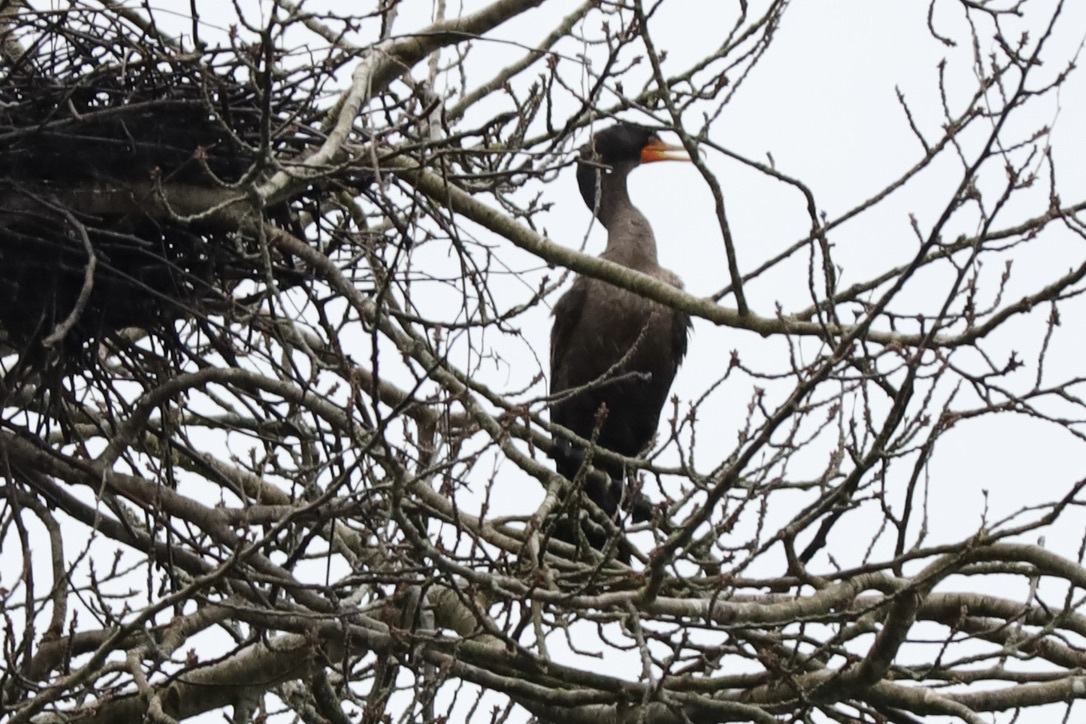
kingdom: Animalia
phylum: Chordata
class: Aves
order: Suliformes
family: Phalacrocoracidae
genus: Phalacrocorax
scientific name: Phalacrocorax auritus
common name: Double-crested cormorant
